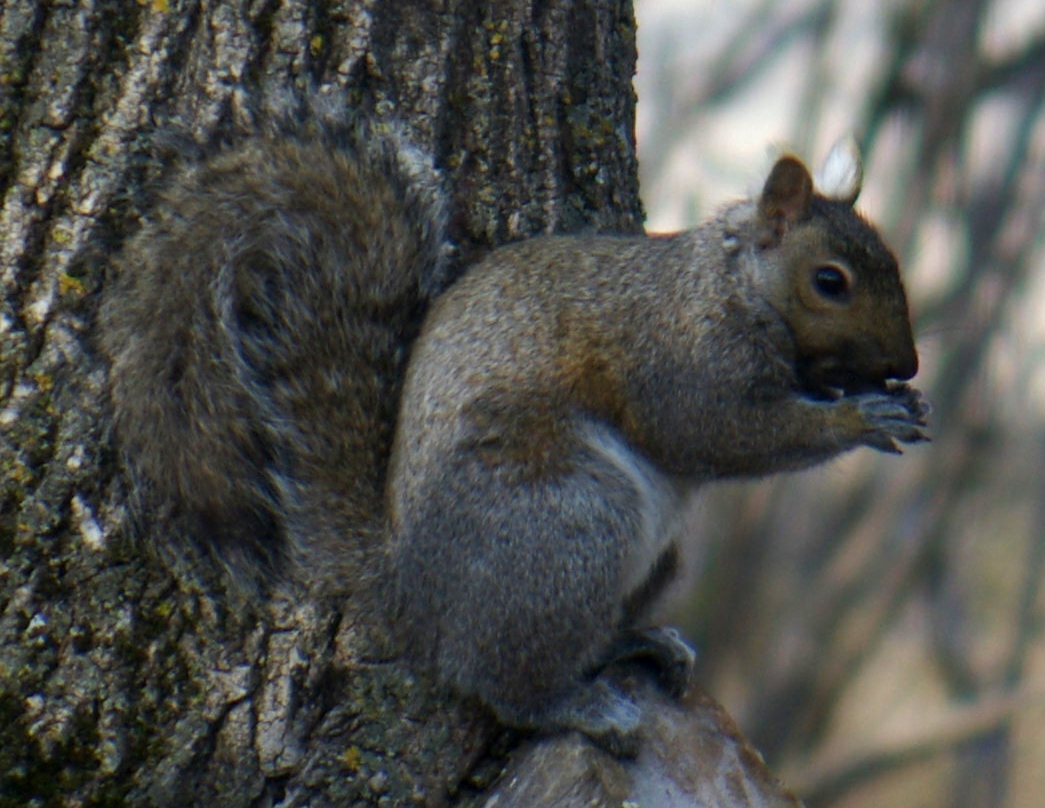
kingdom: Animalia
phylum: Chordata
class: Mammalia
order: Rodentia
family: Sciuridae
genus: Sciurus
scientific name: Sciurus carolinensis
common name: Eastern gray squirrel
